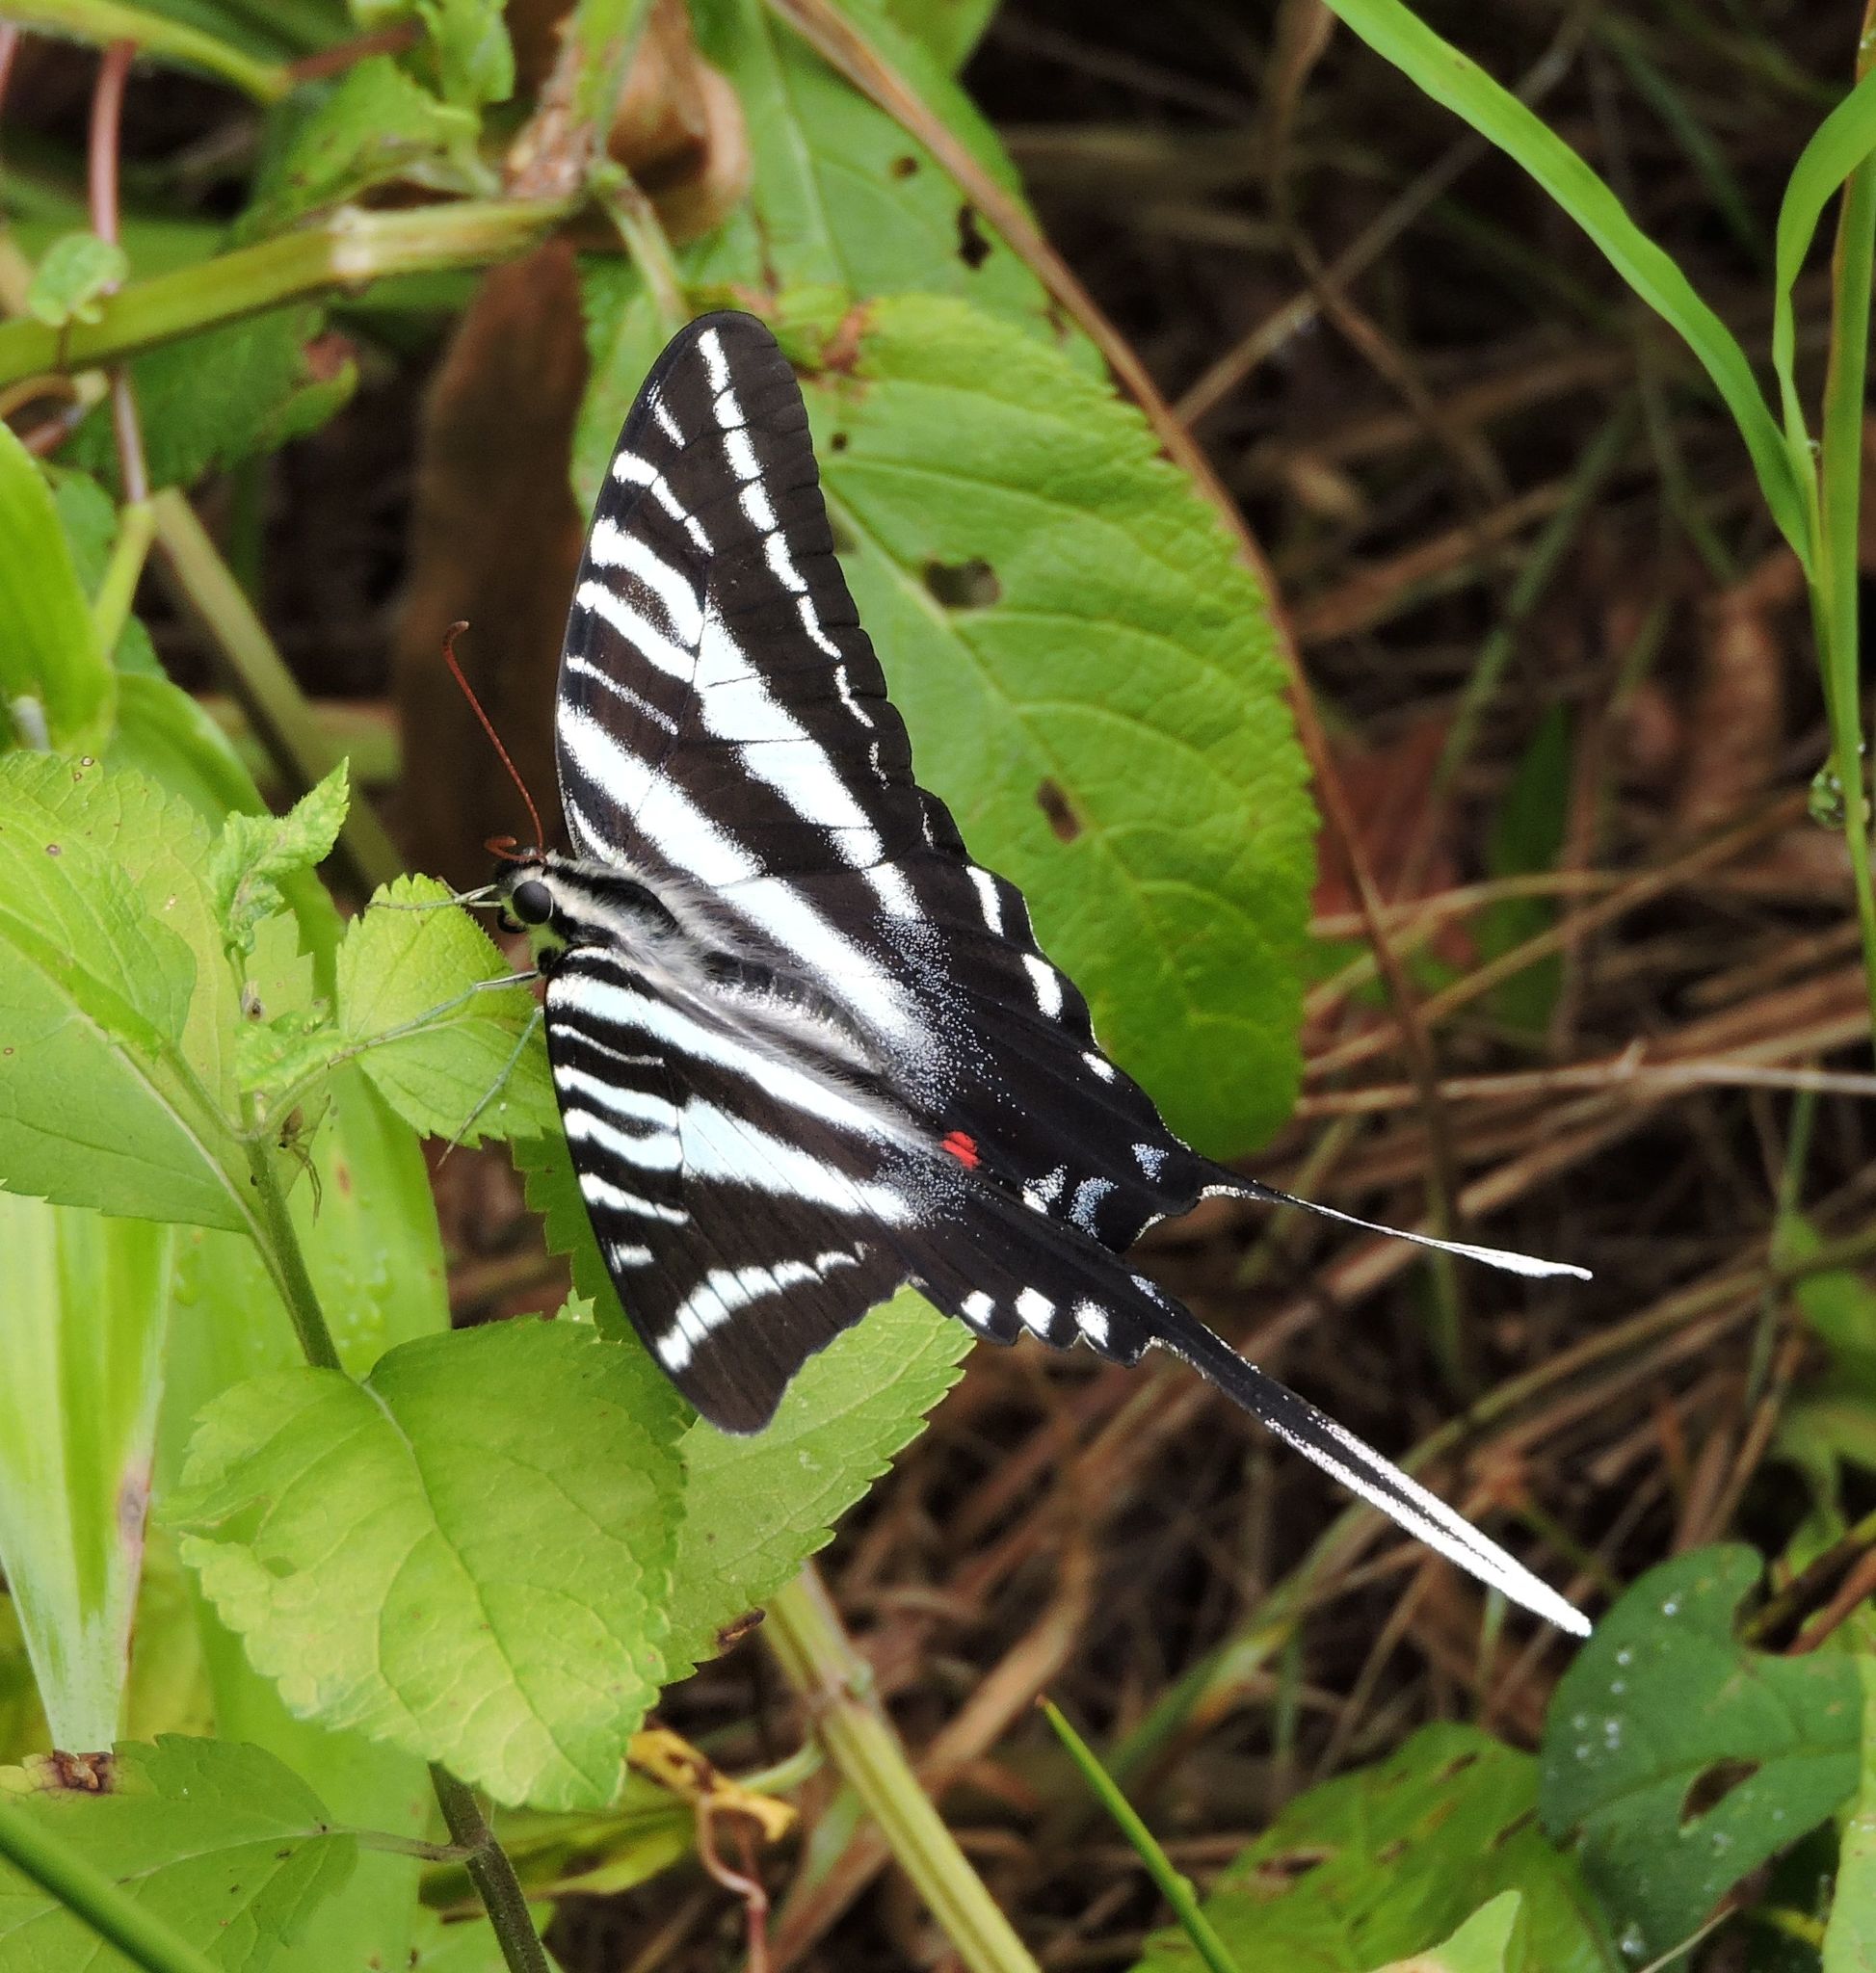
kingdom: Animalia
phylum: Arthropoda
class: Insecta
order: Lepidoptera
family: Papilionidae
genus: Protographium
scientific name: Protographium marcellus
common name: Zebra swallowtail
